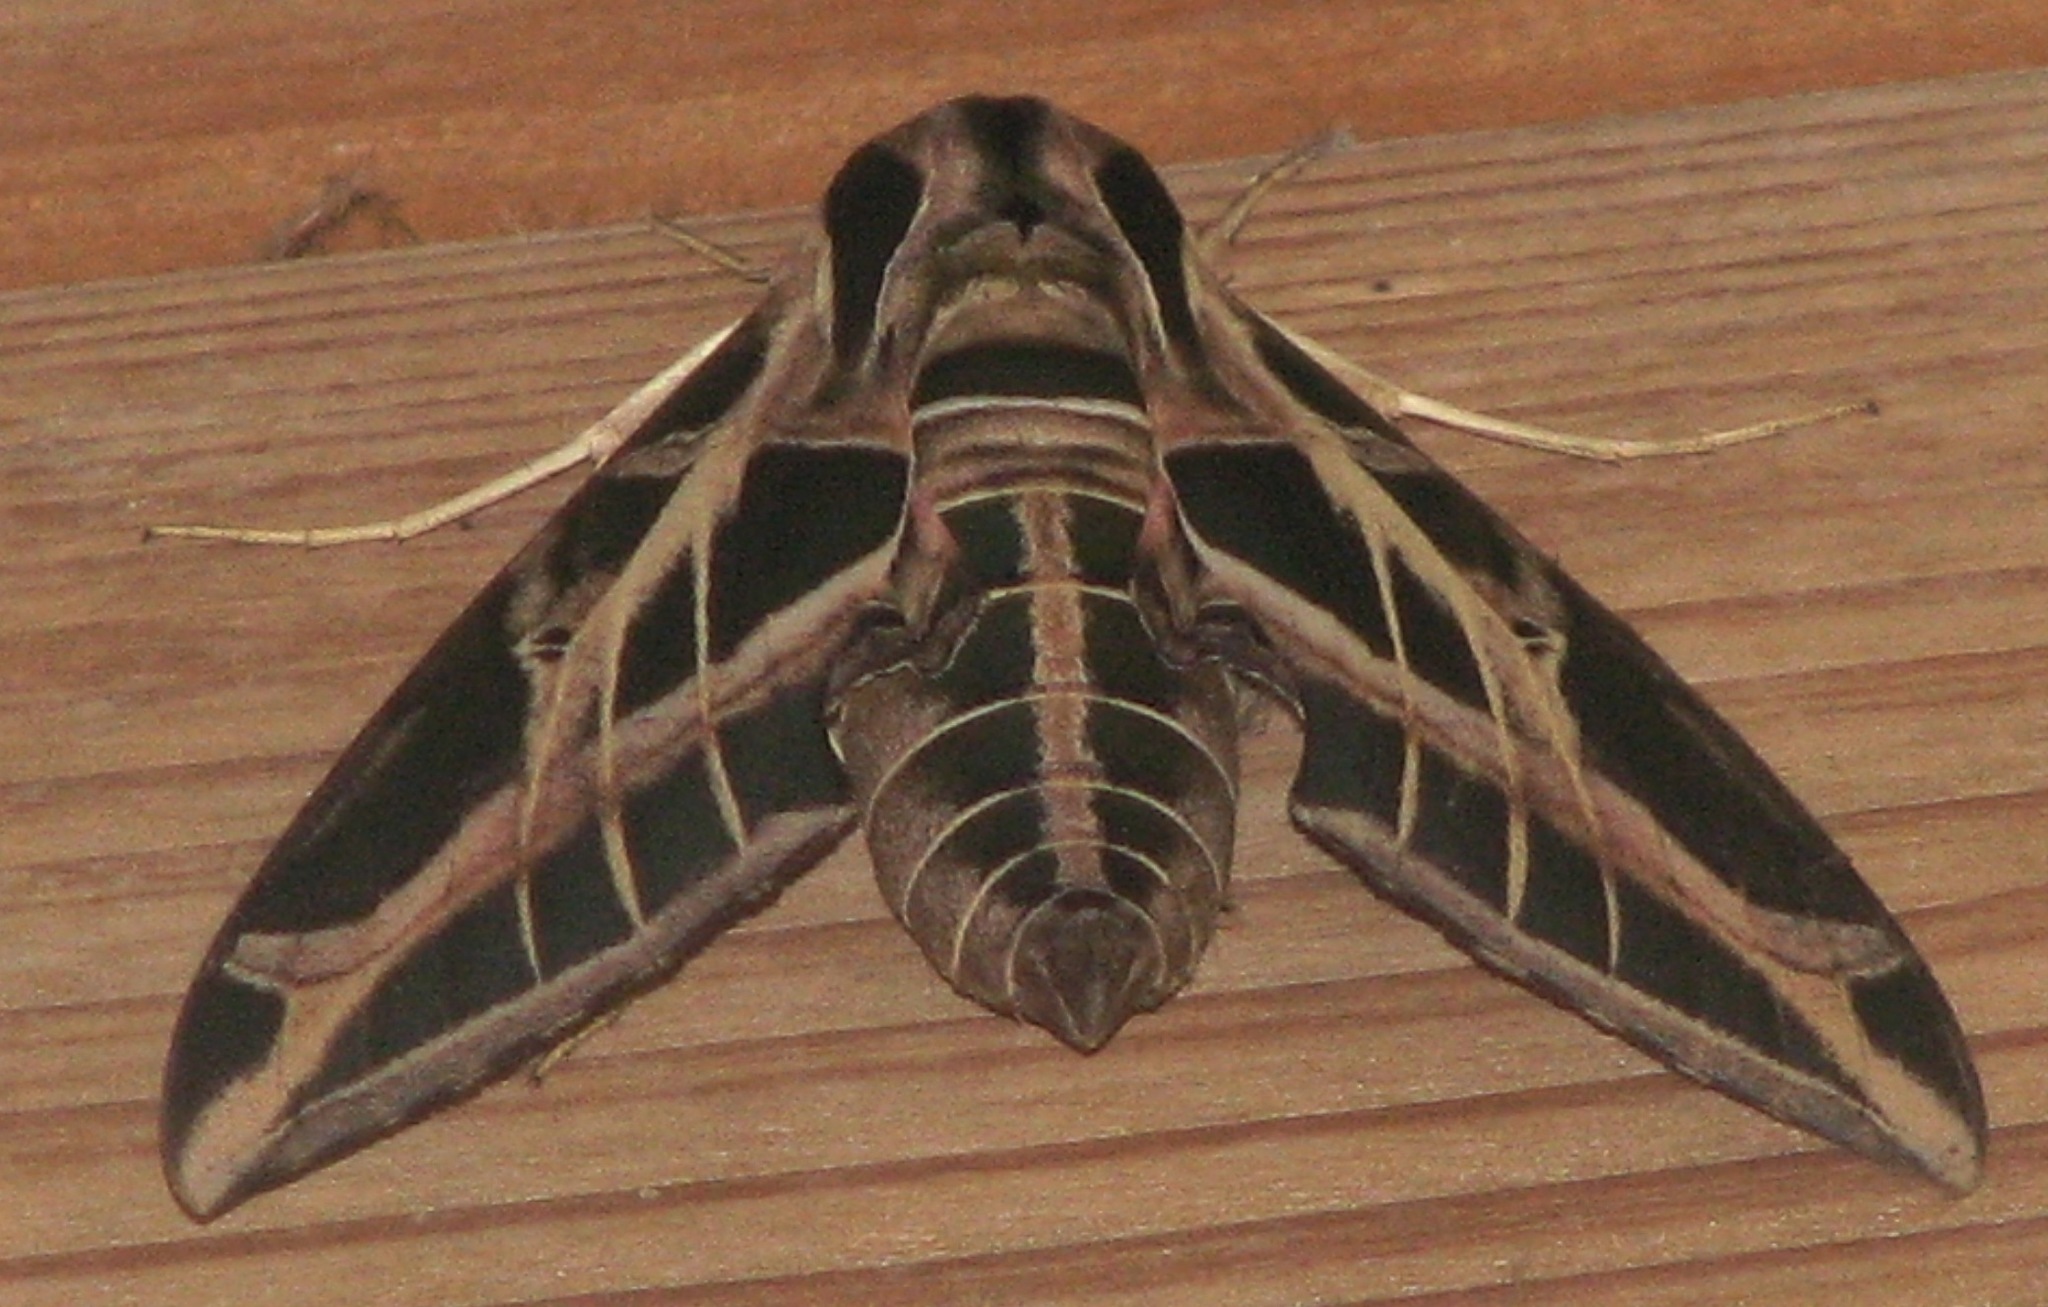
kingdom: Animalia
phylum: Arthropoda
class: Insecta
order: Lepidoptera
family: Sphingidae
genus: Eumorpha
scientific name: Eumorpha vitis
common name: Vine sphinx
